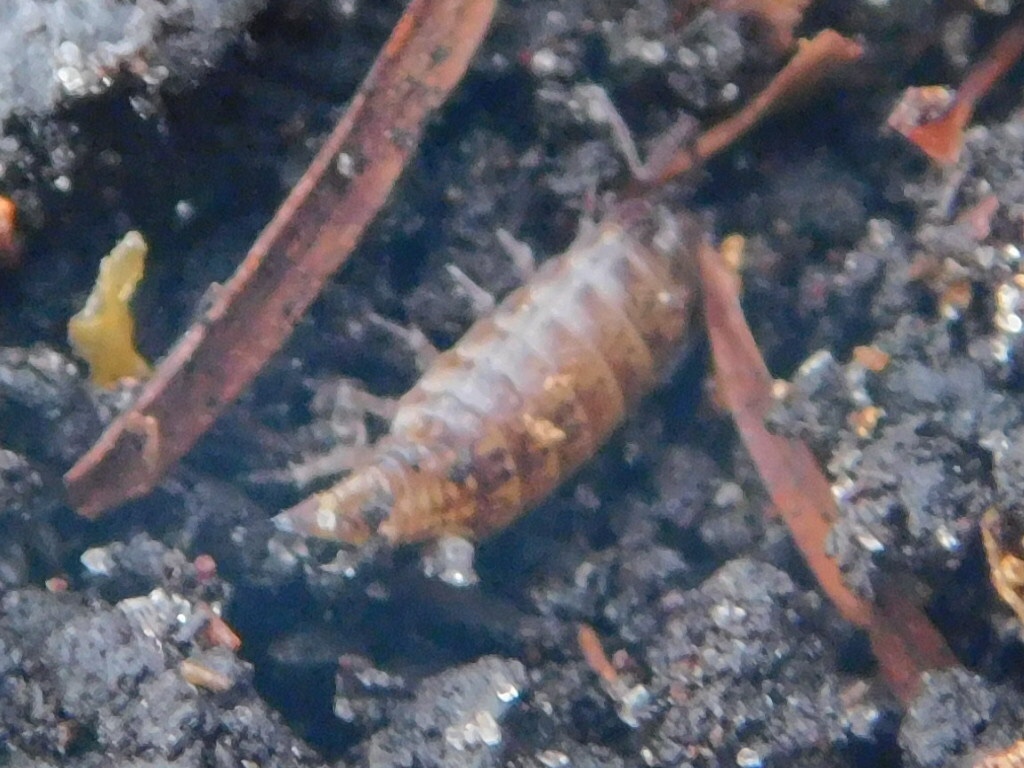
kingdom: Animalia
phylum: Arthropoda
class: Malacostraca
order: Isopoda
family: Philosciidae
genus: Atlantoscia
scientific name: Atlantoscia floridana
